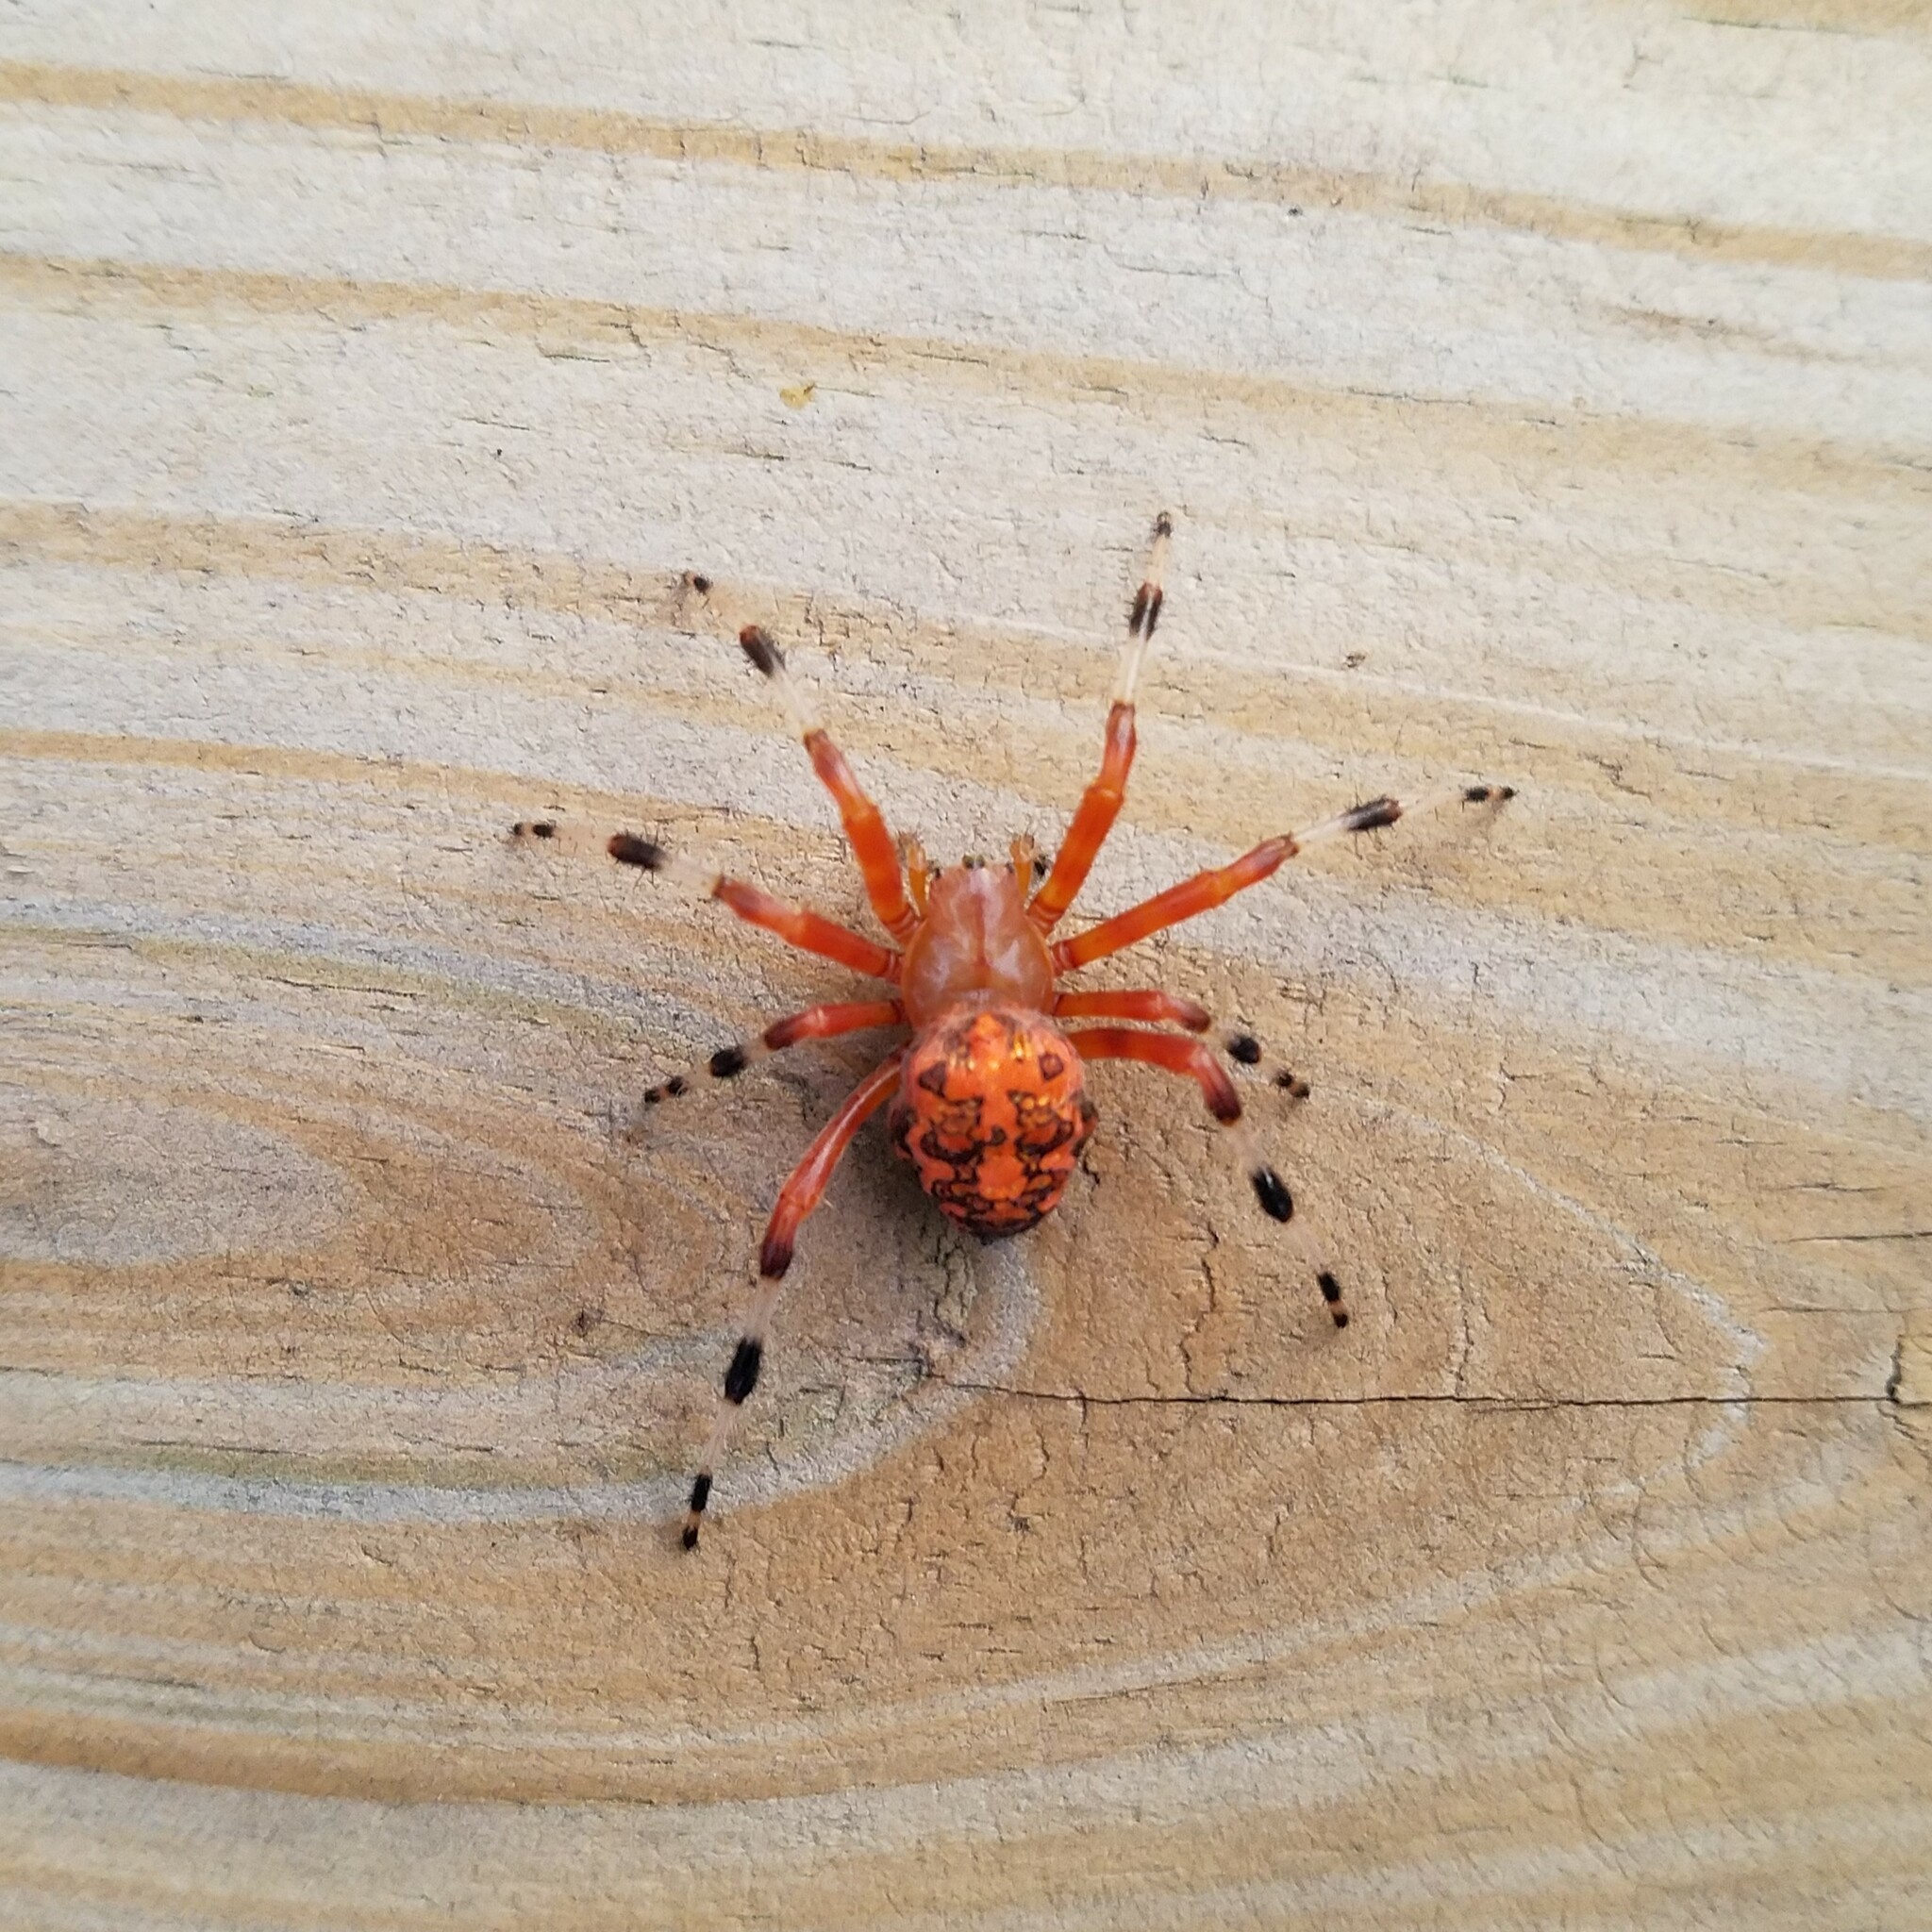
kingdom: Animalia
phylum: Arthropoda
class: Arachnida
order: Araneae
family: Araneidae
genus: Araneus
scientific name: Araneus marmoreus
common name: Marbled orbweaver
